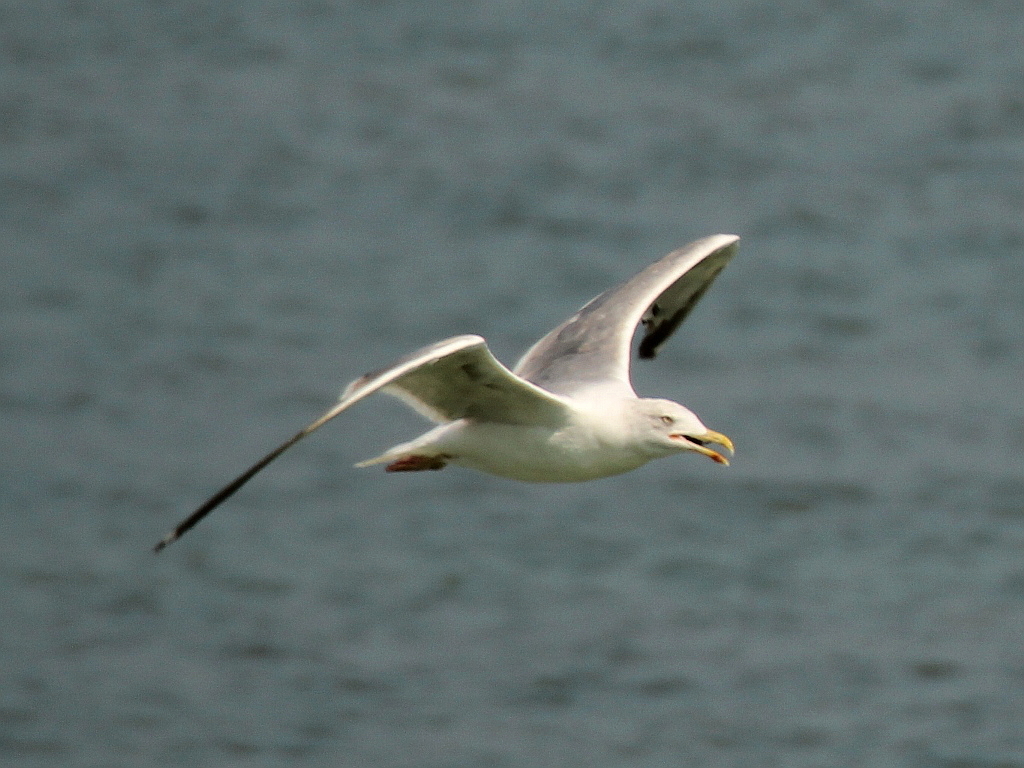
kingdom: Animalia
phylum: Chordata
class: Aves
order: Charadriiformes
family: Laridae
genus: Larus
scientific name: Larus michahellis
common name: Yellow-legged gull
